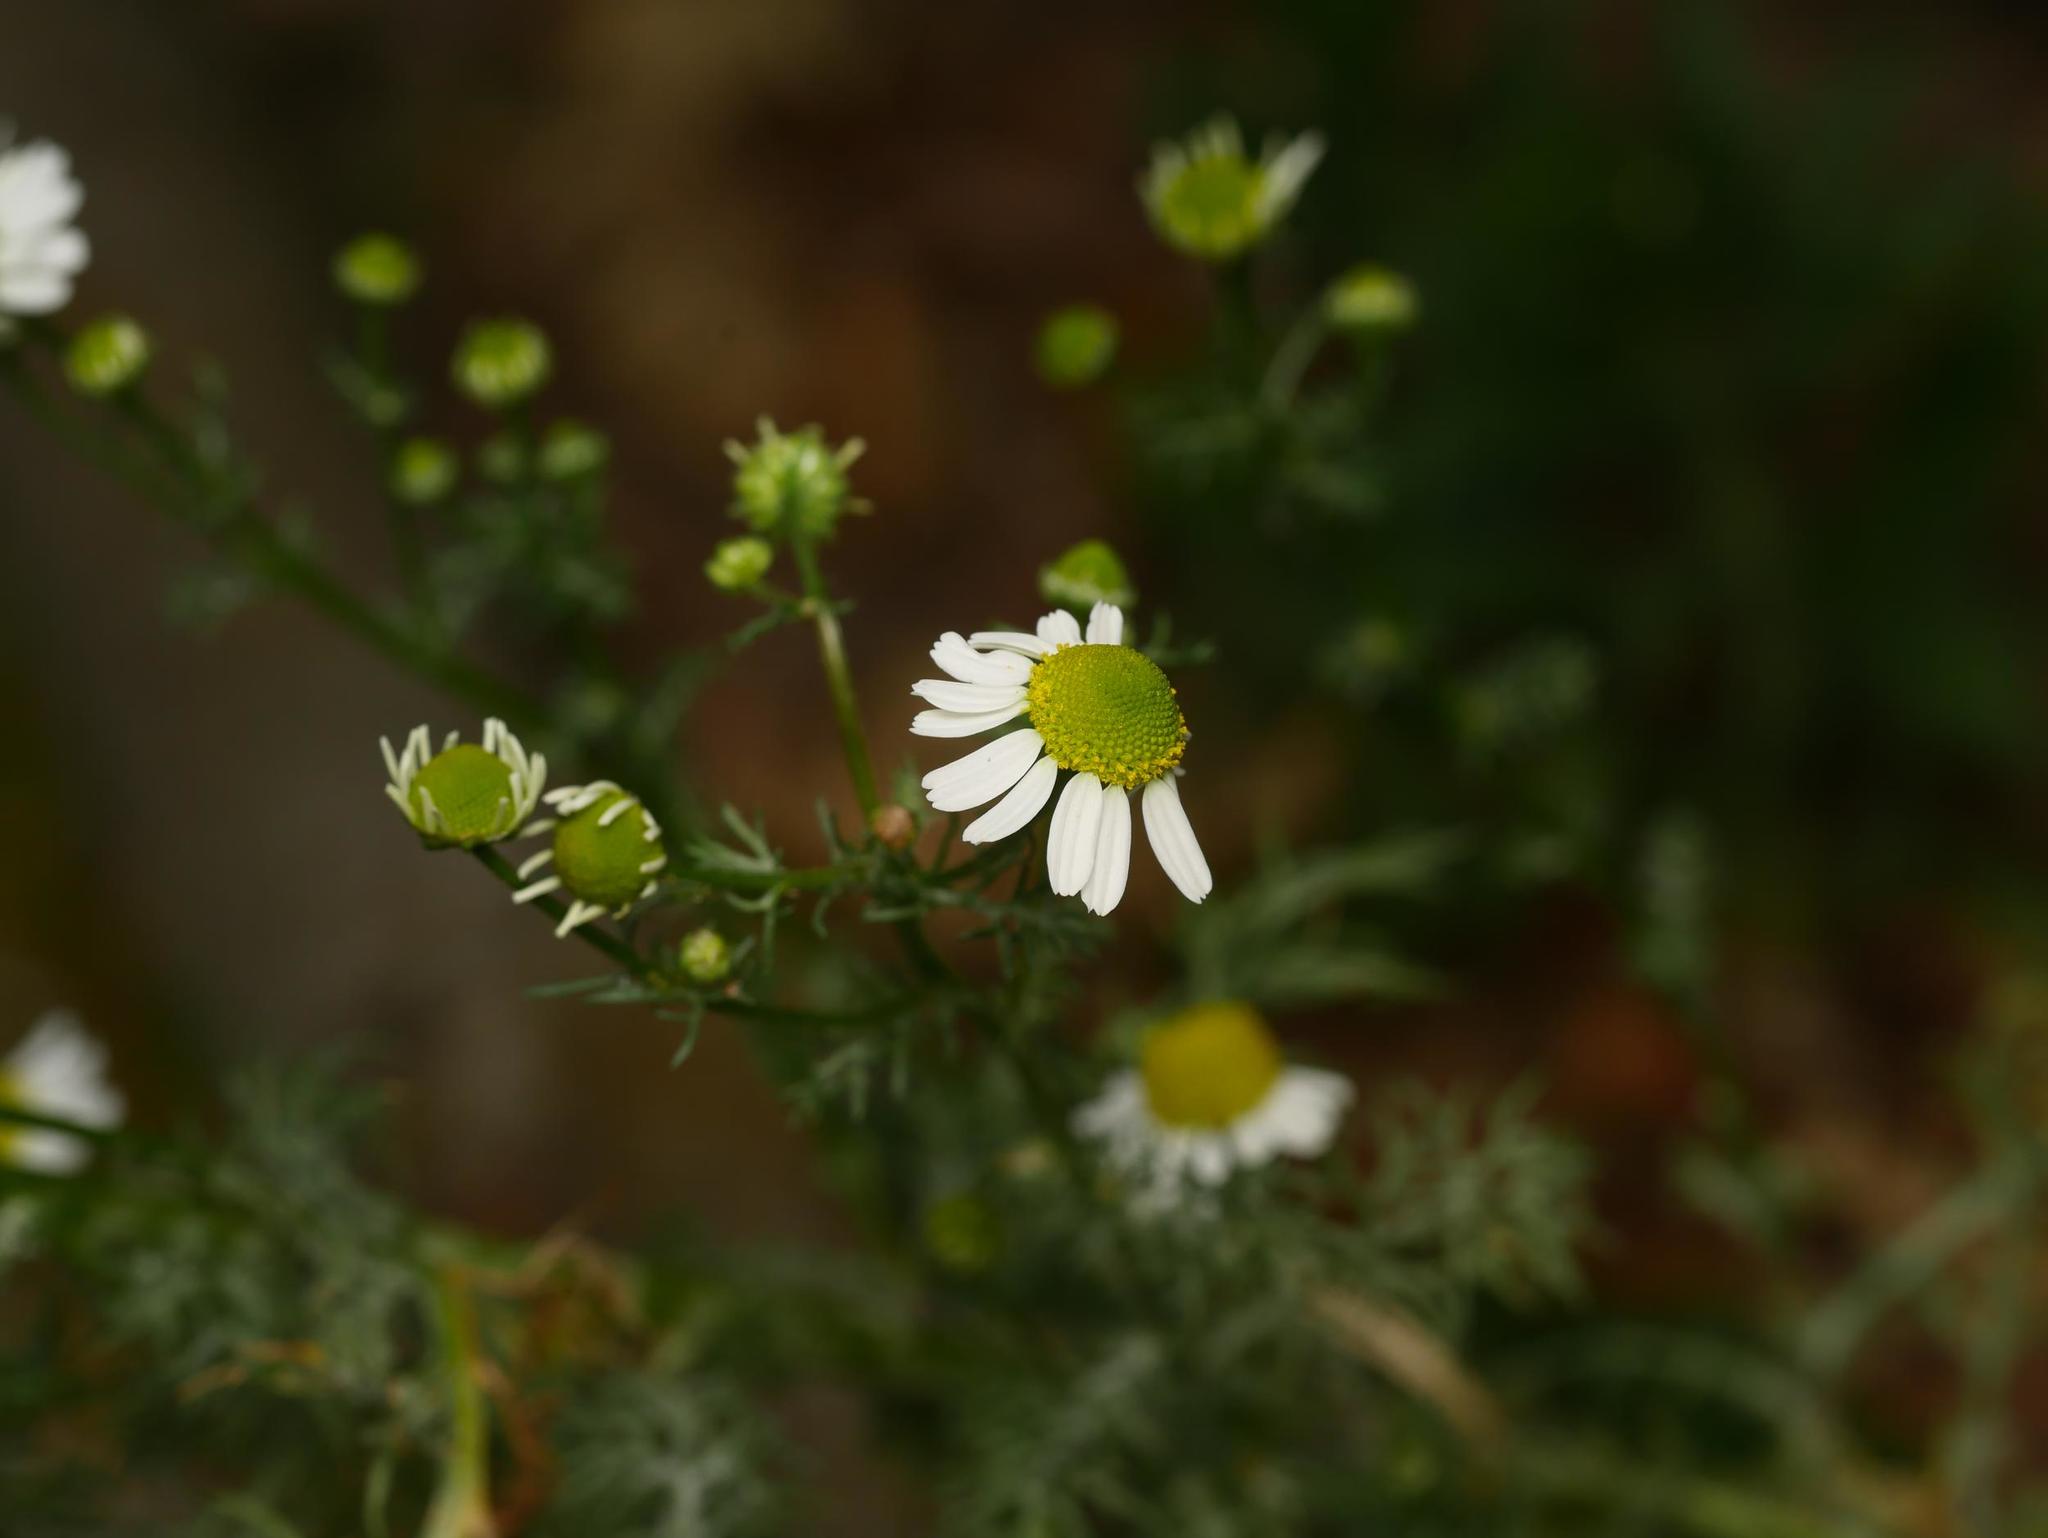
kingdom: Plantae
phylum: Tracheophyta
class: Magnoliopsida
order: Asterales
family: Asteraceae
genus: Matricaria
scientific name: Matricaria chamomilla
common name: Scented mayweed
